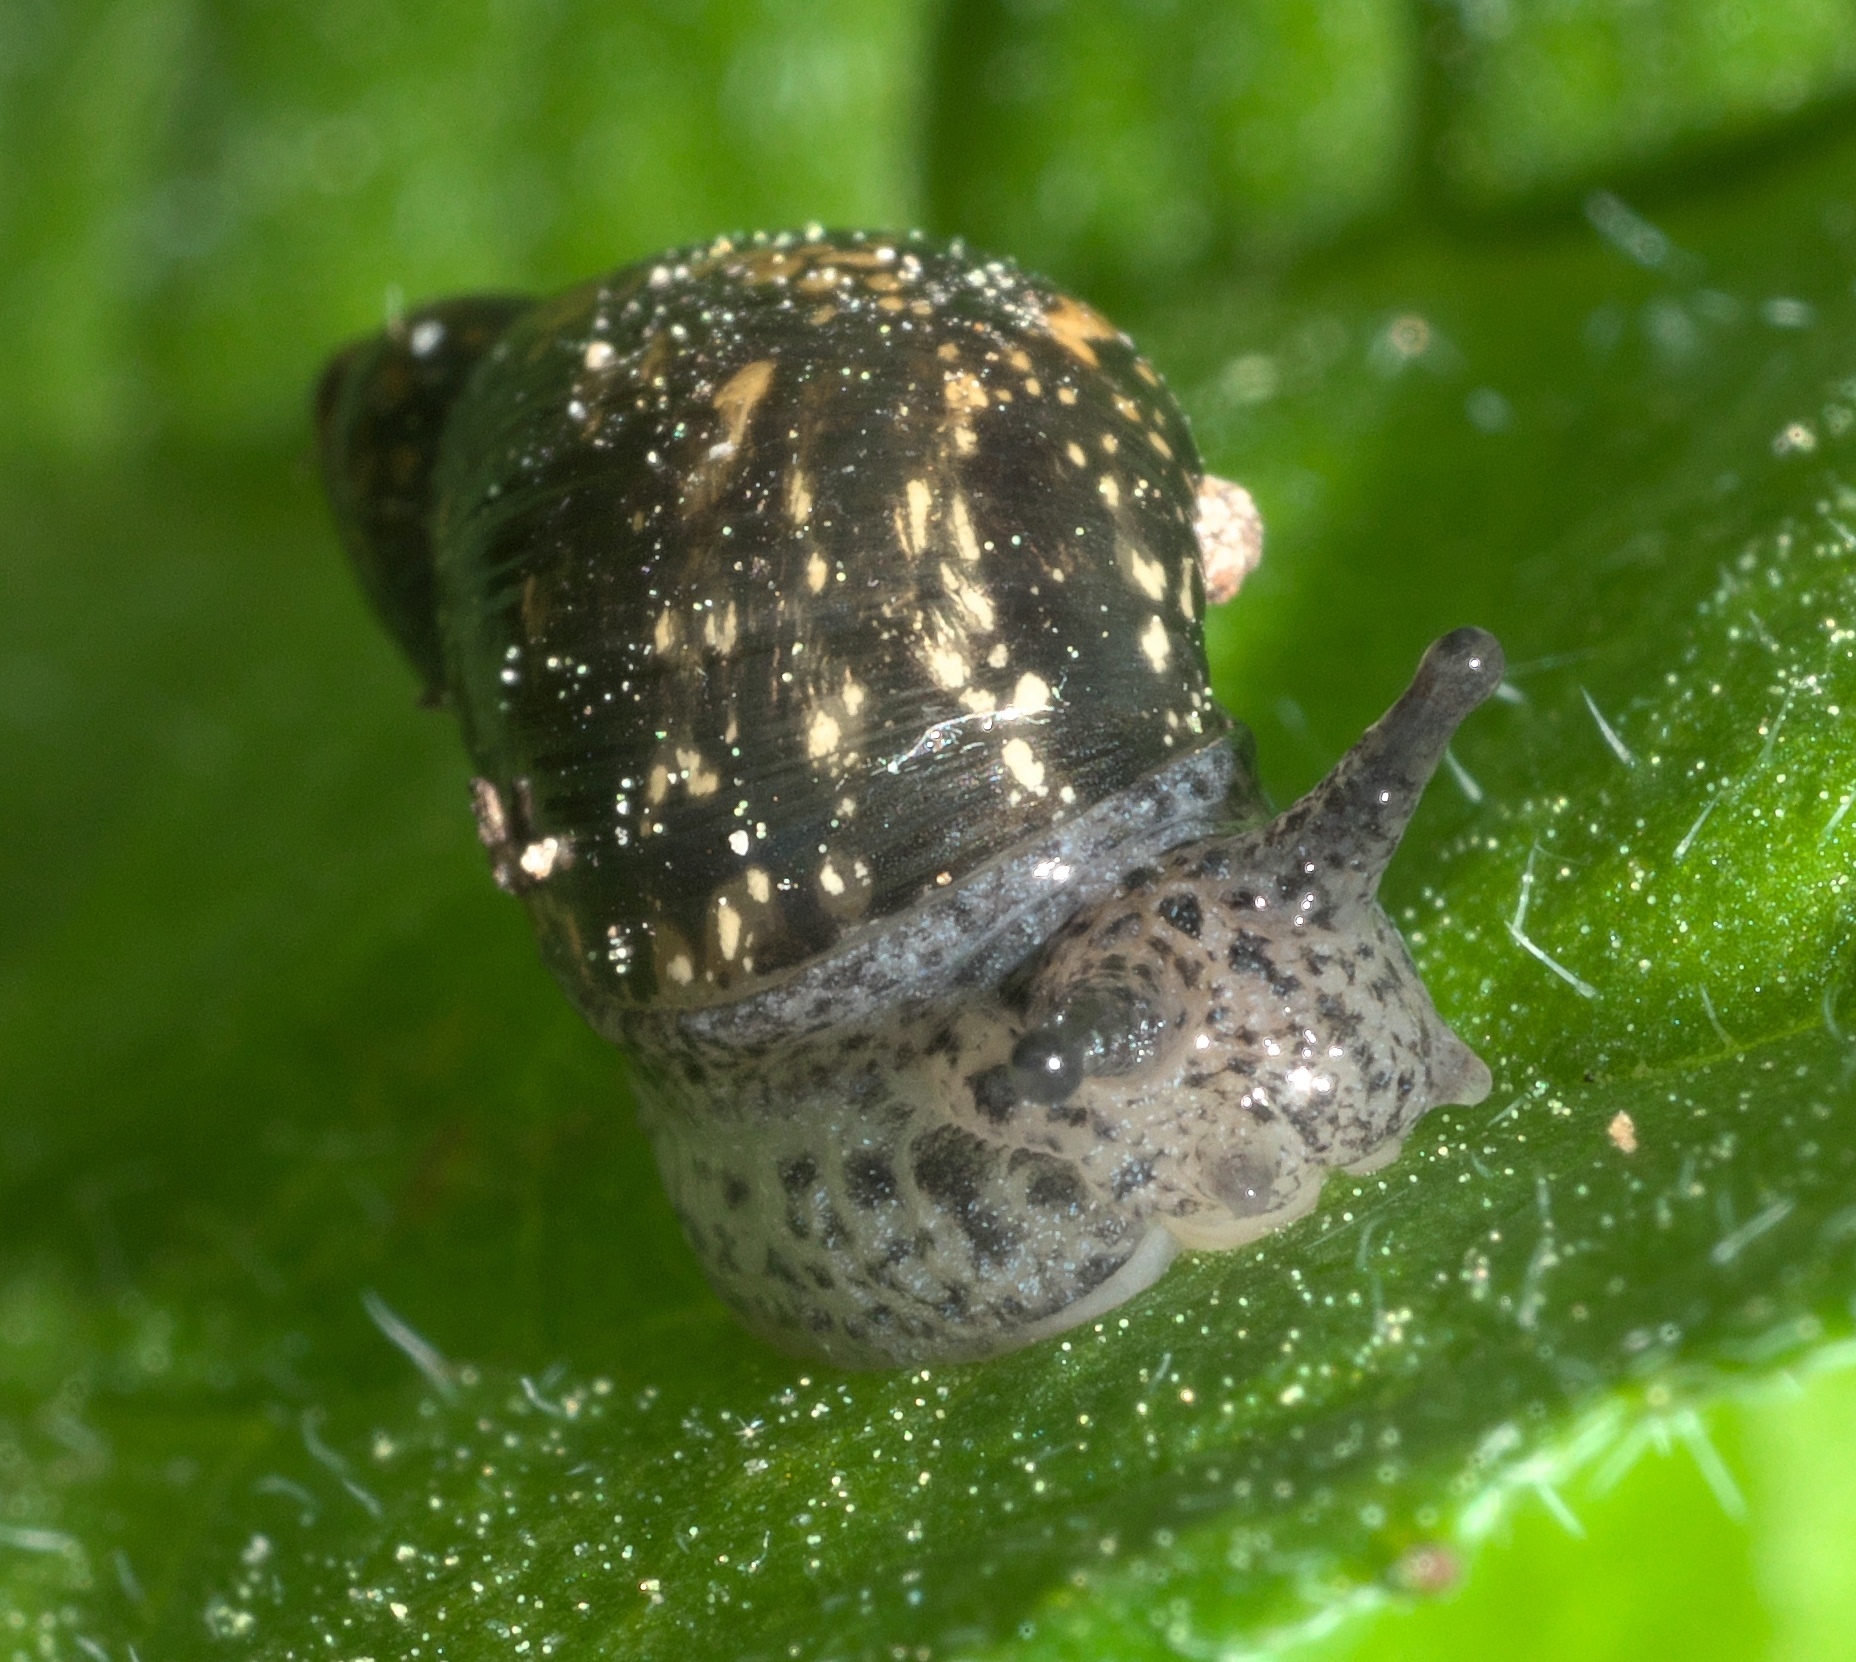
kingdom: Animalia
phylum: Mollusca
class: Gastropoda
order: Stylommatophora
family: Succineidae
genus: Succinea
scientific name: Succinea concordialis
